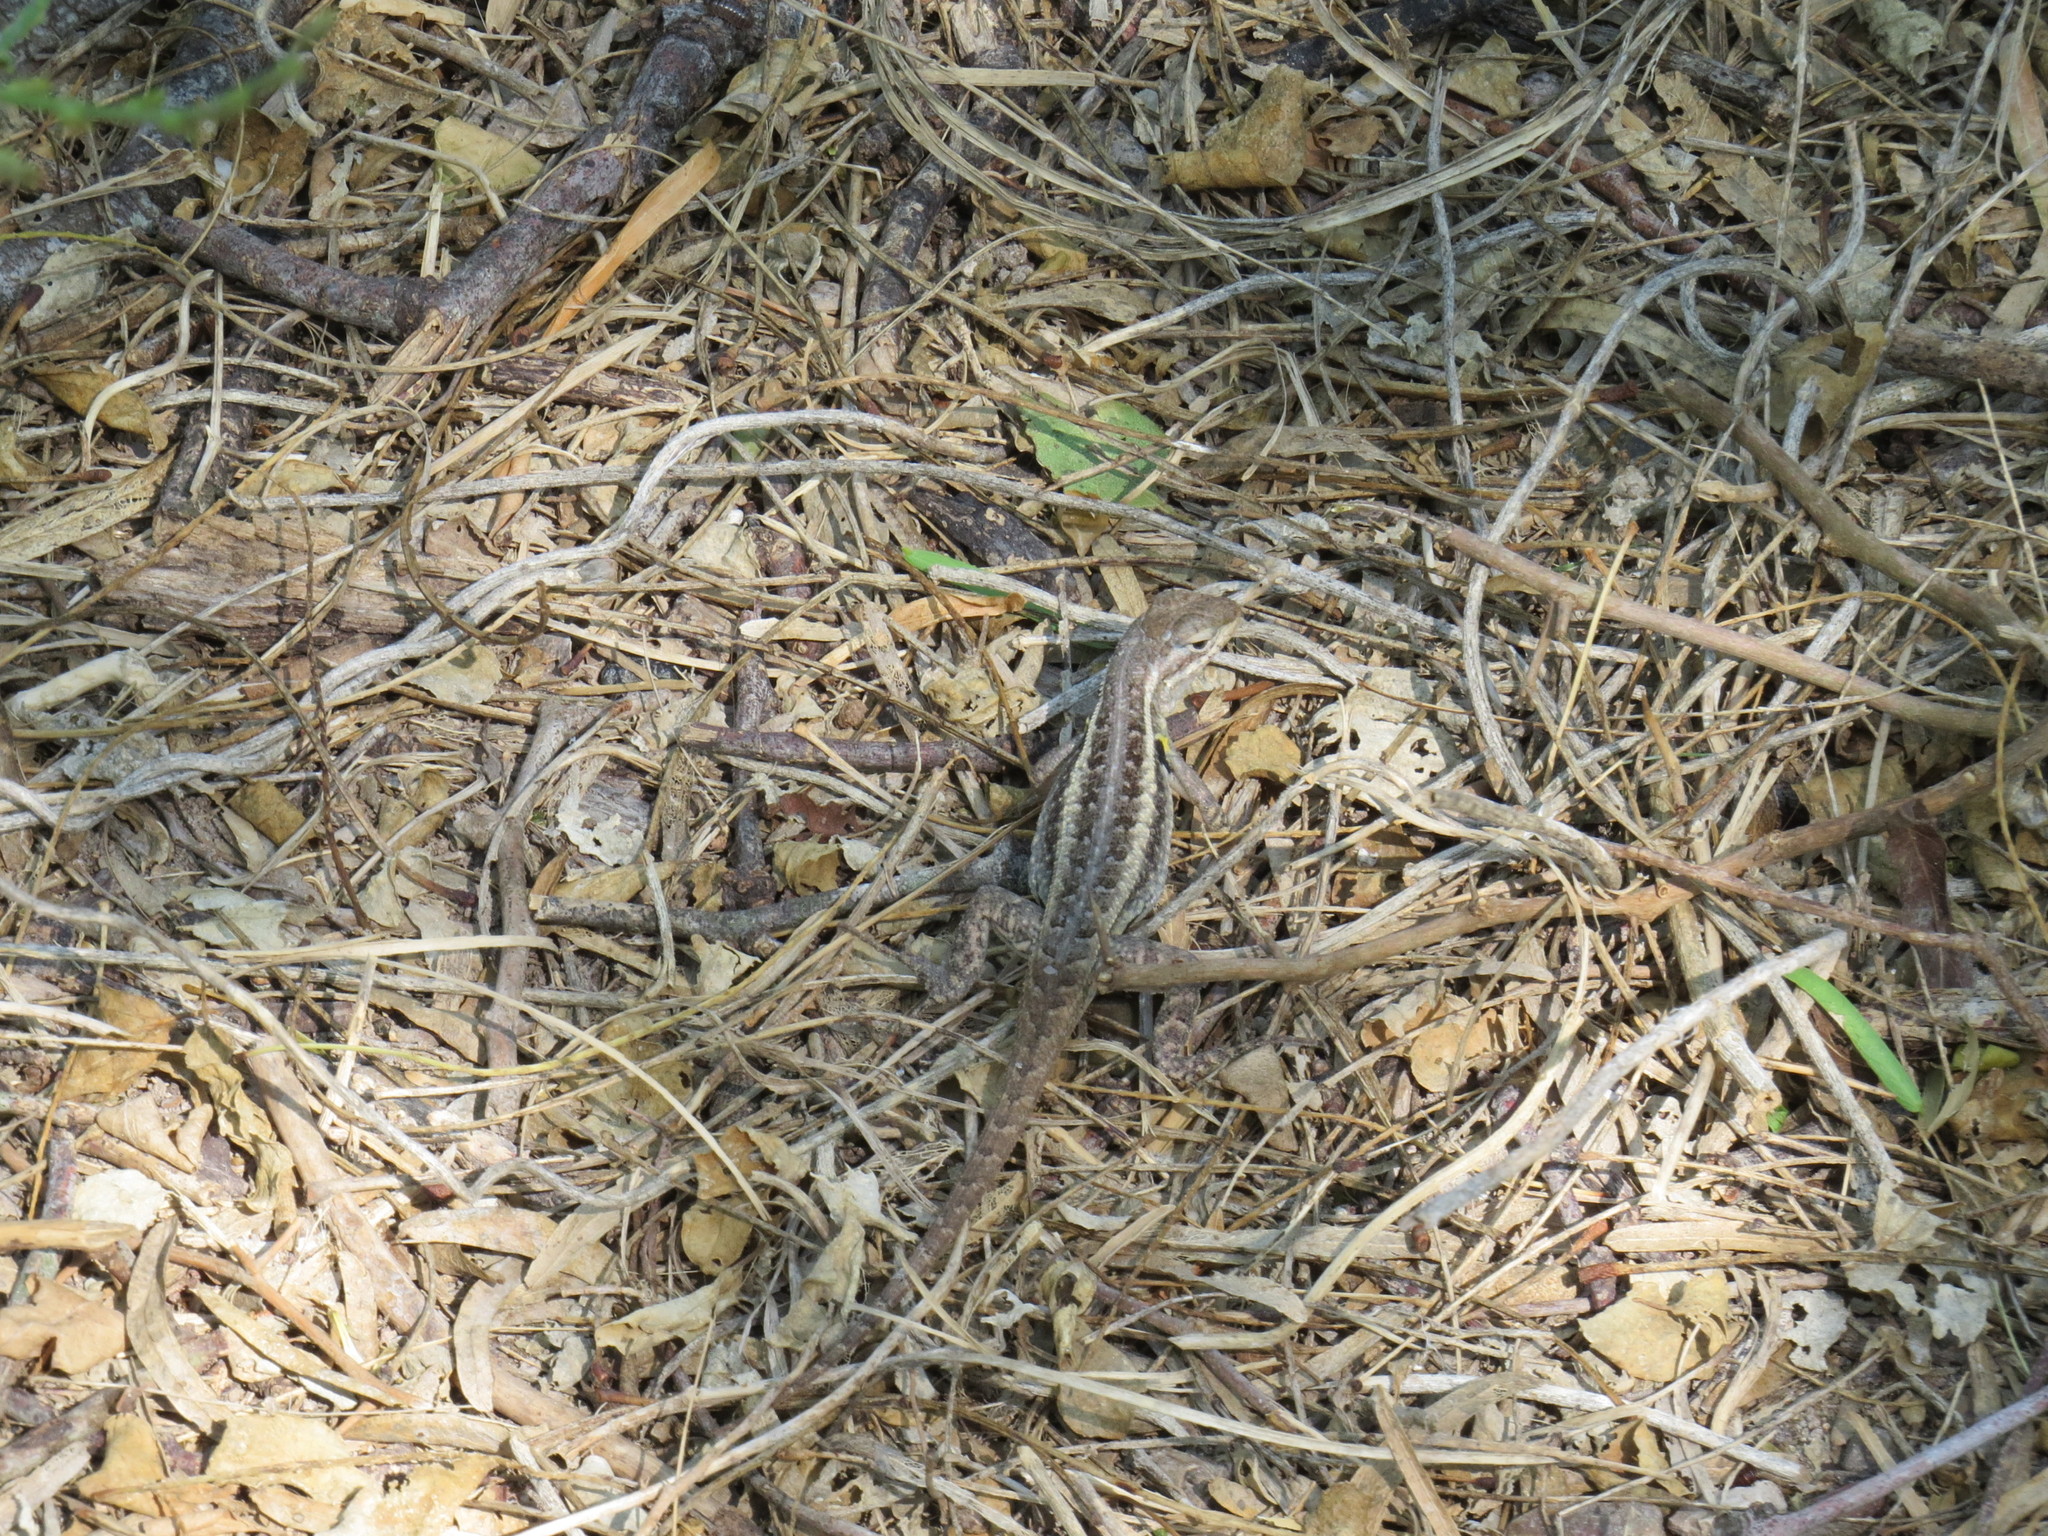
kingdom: Animalia
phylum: Chordata
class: Squamata
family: Phrynosomatidae
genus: Sceloporus
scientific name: Sceloporus variabilis
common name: Rosebelly lizard
